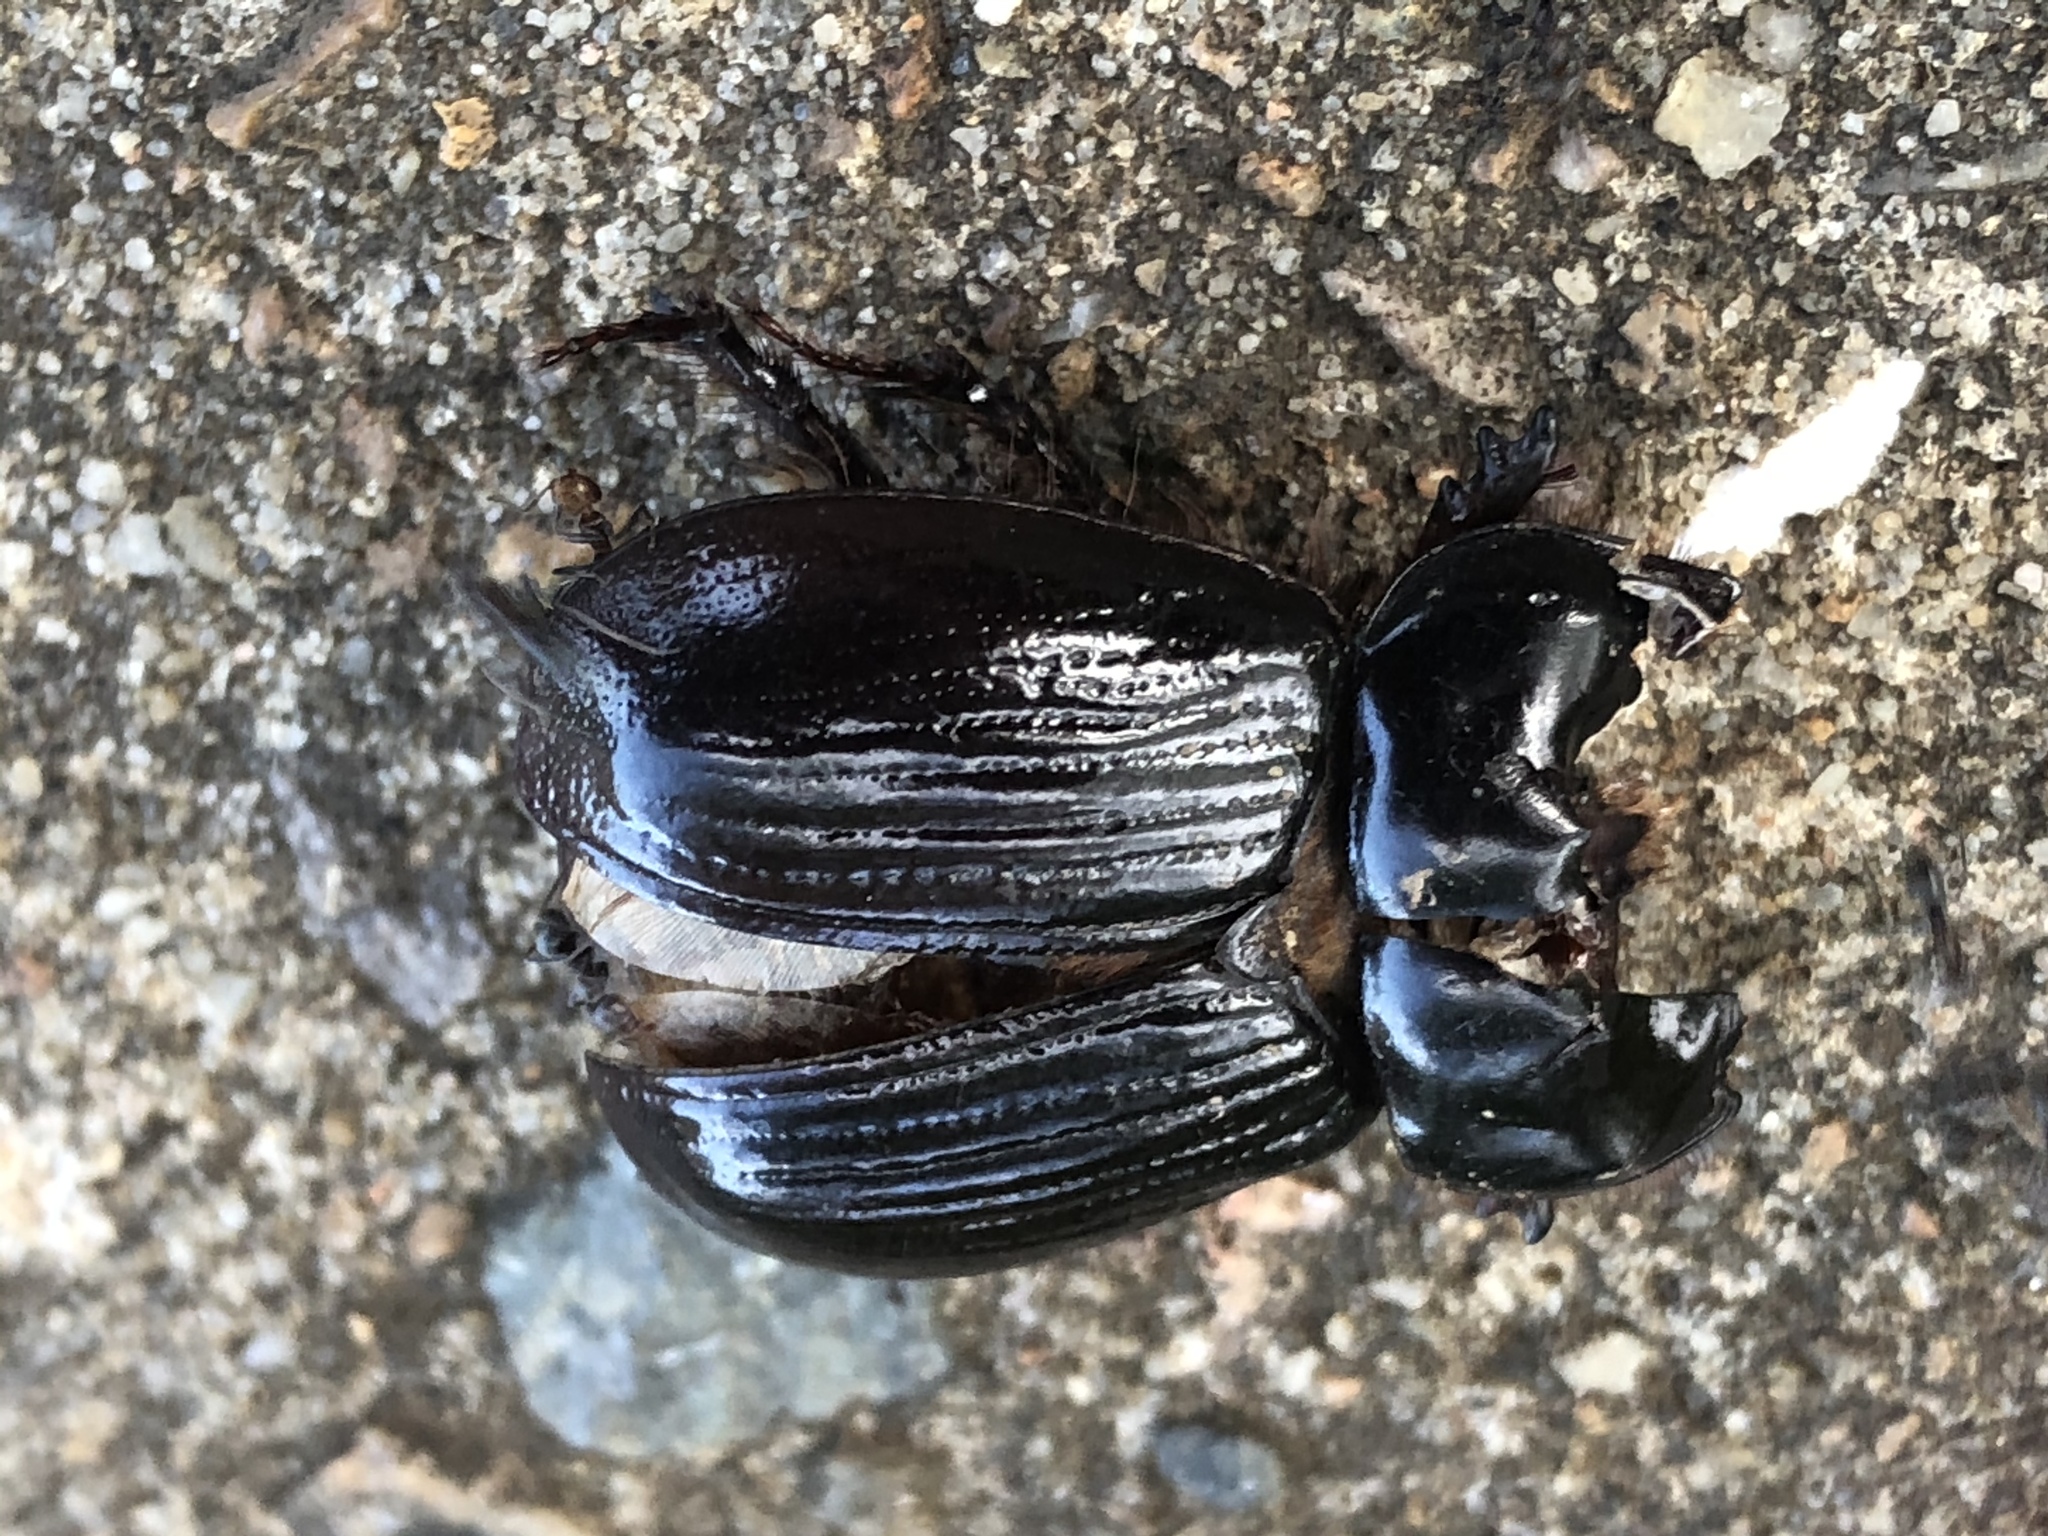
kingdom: Animalia
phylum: Arthropoda
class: Insecta
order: Coleoptera
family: Scarabaeidae
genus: Heteronychus
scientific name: Heteronychus arator
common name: African black beetle
